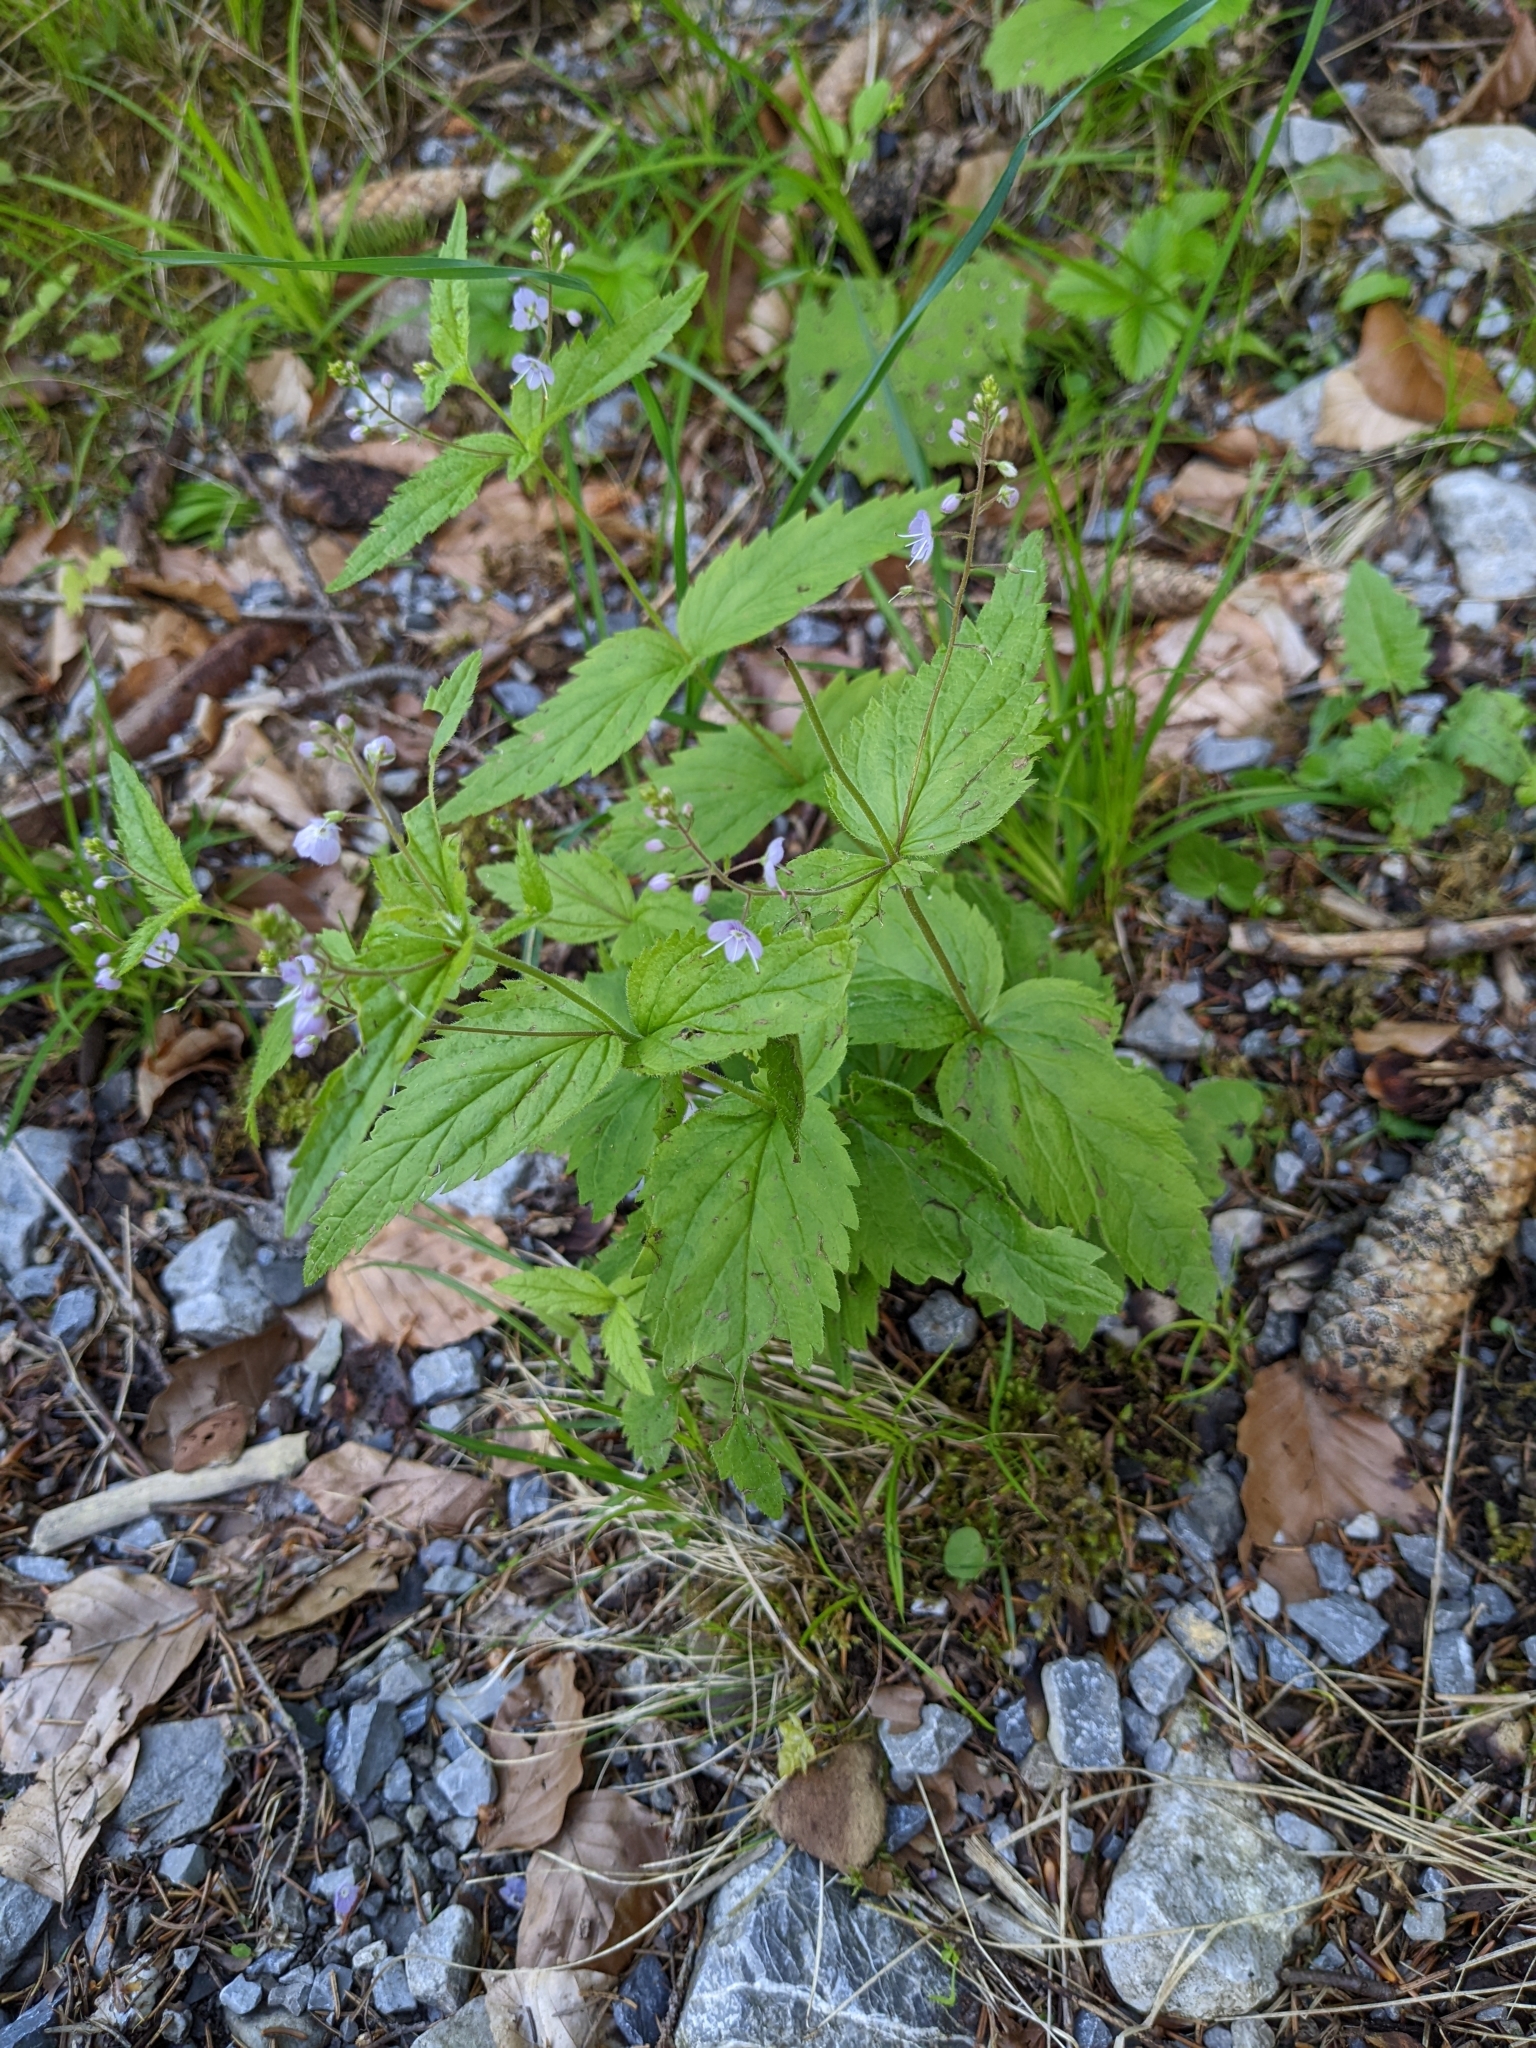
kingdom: Plantae
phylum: Tracheophyta
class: Magnoliopsida
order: Lamiales
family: Plantaginaceae
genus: Veronica
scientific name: Veronica urticifolia
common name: Nettle-leaf speedwell
